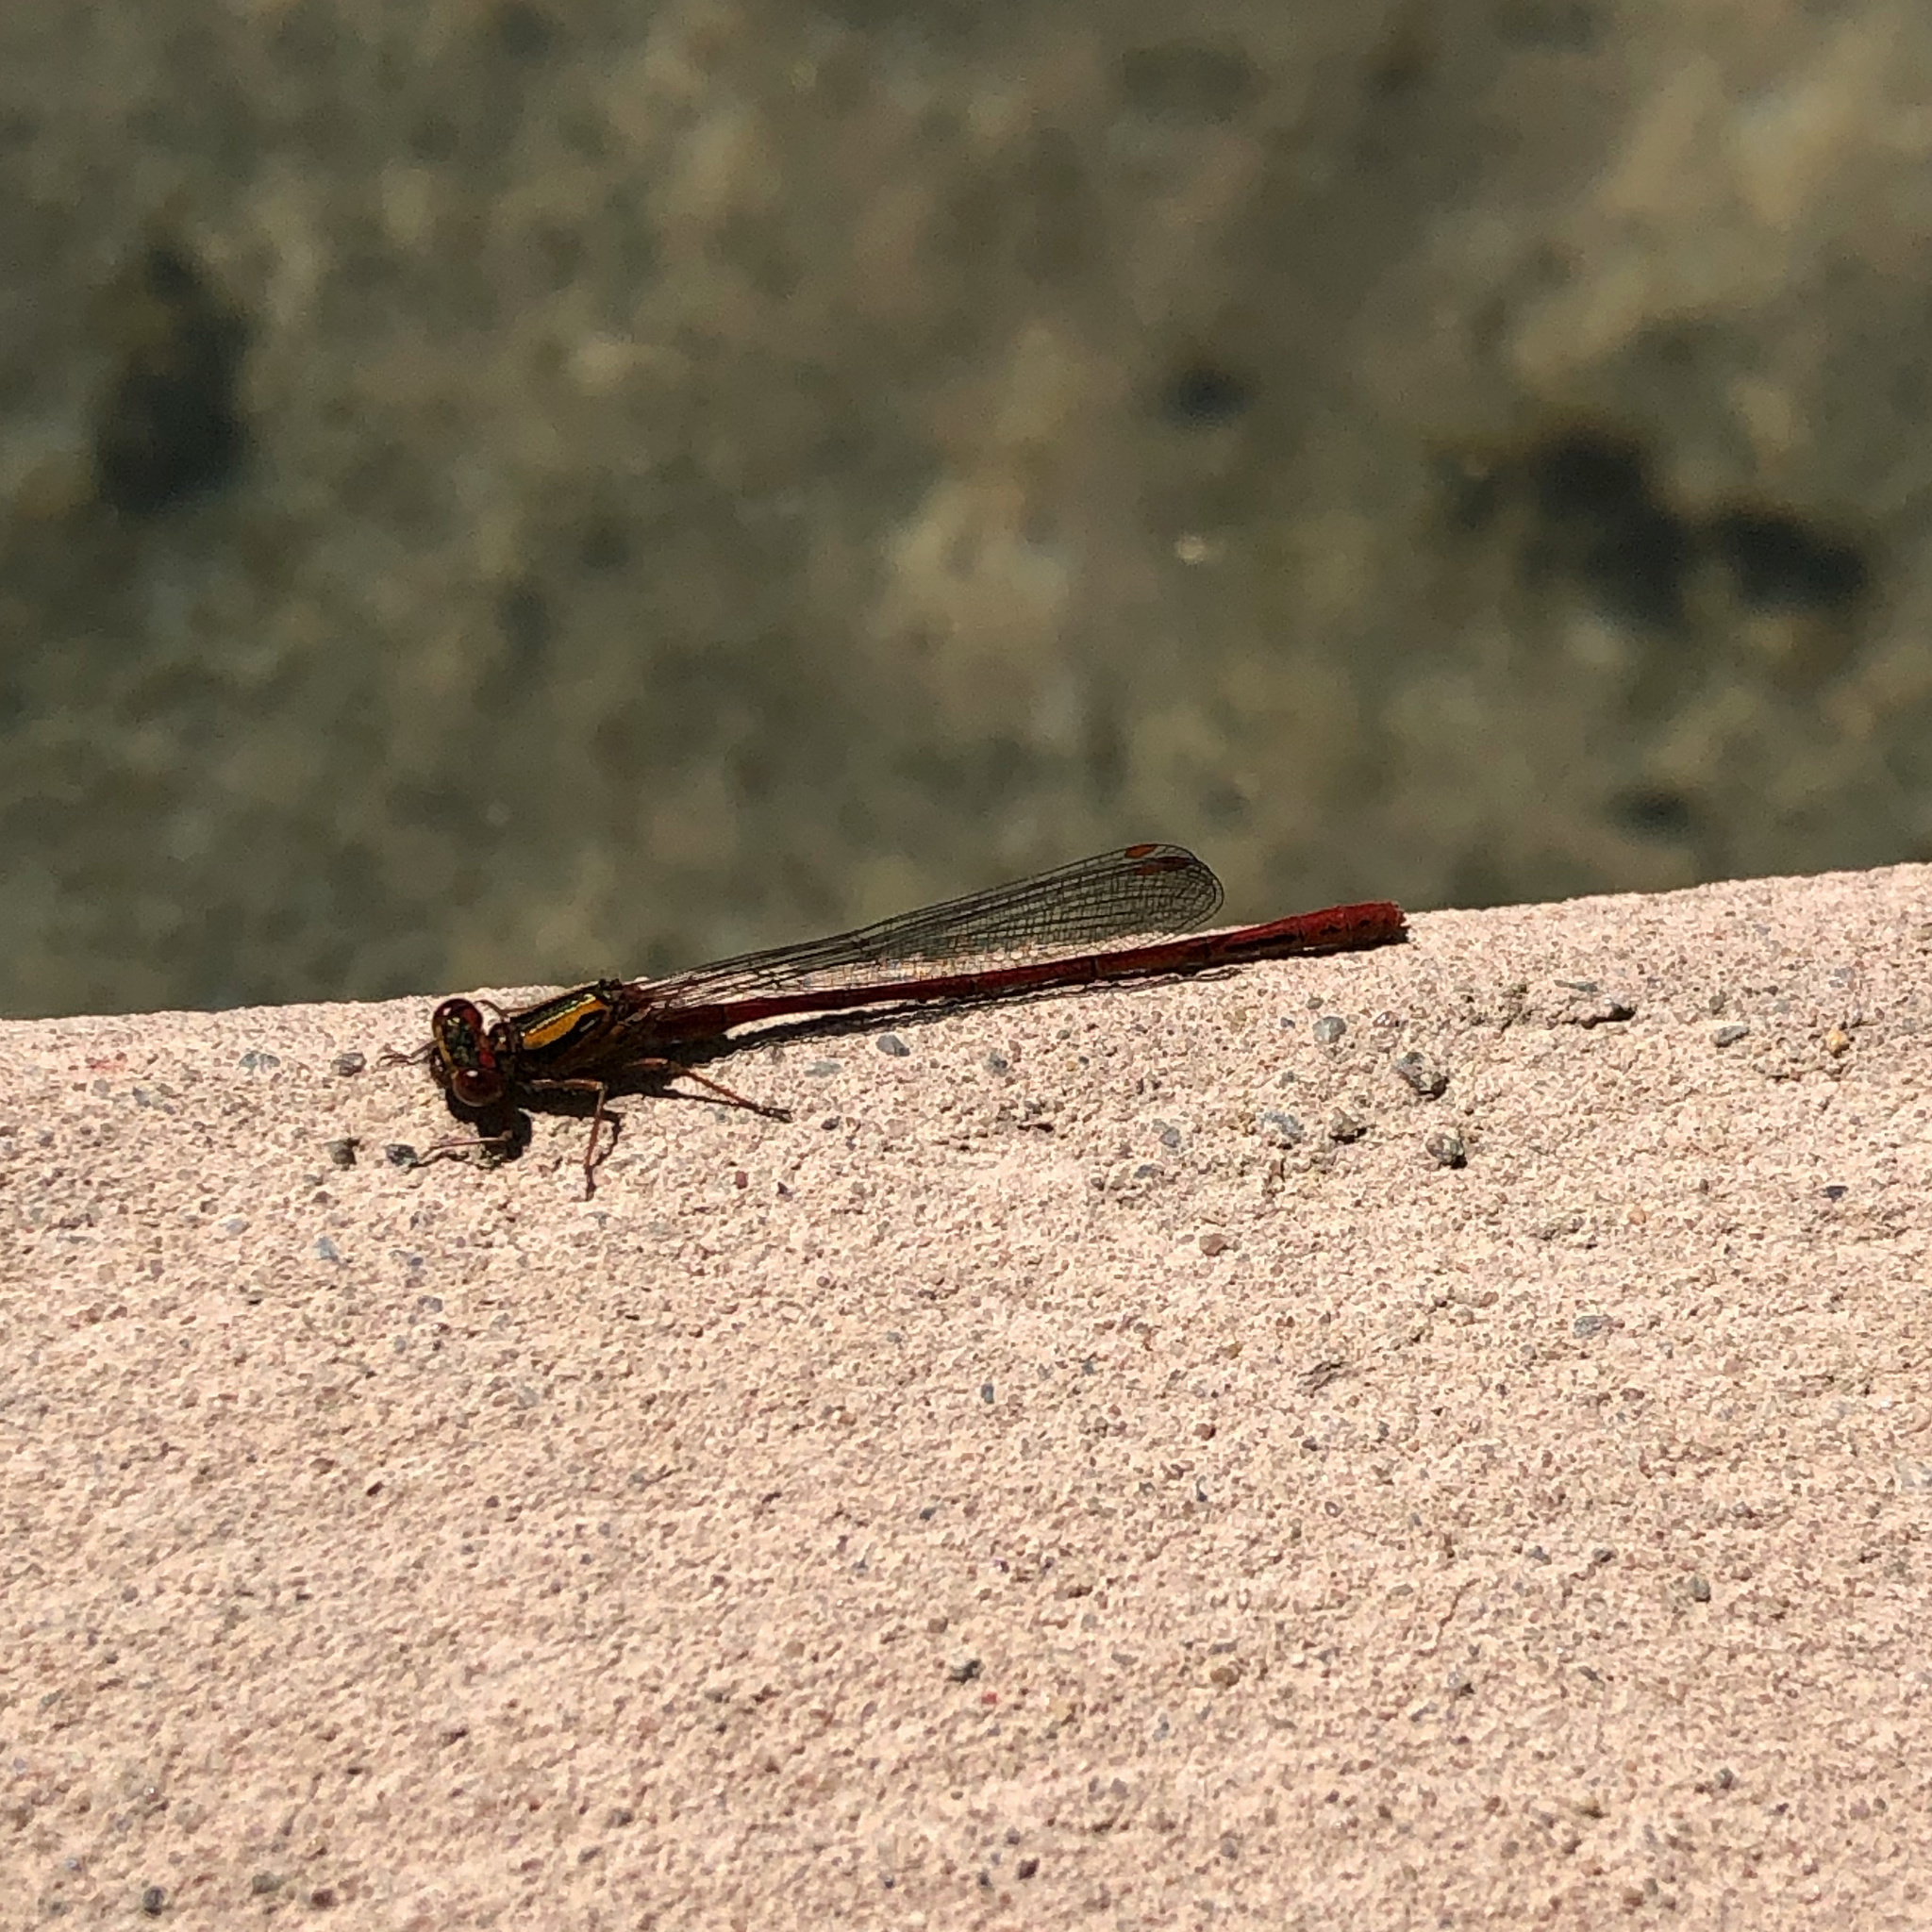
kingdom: Animalia
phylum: Arthropoda
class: Insecta
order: Odonata
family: Coenagrionidae
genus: Xanthocnemis
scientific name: Xanthocnemis zealandica
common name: Common redcoat damselfly
